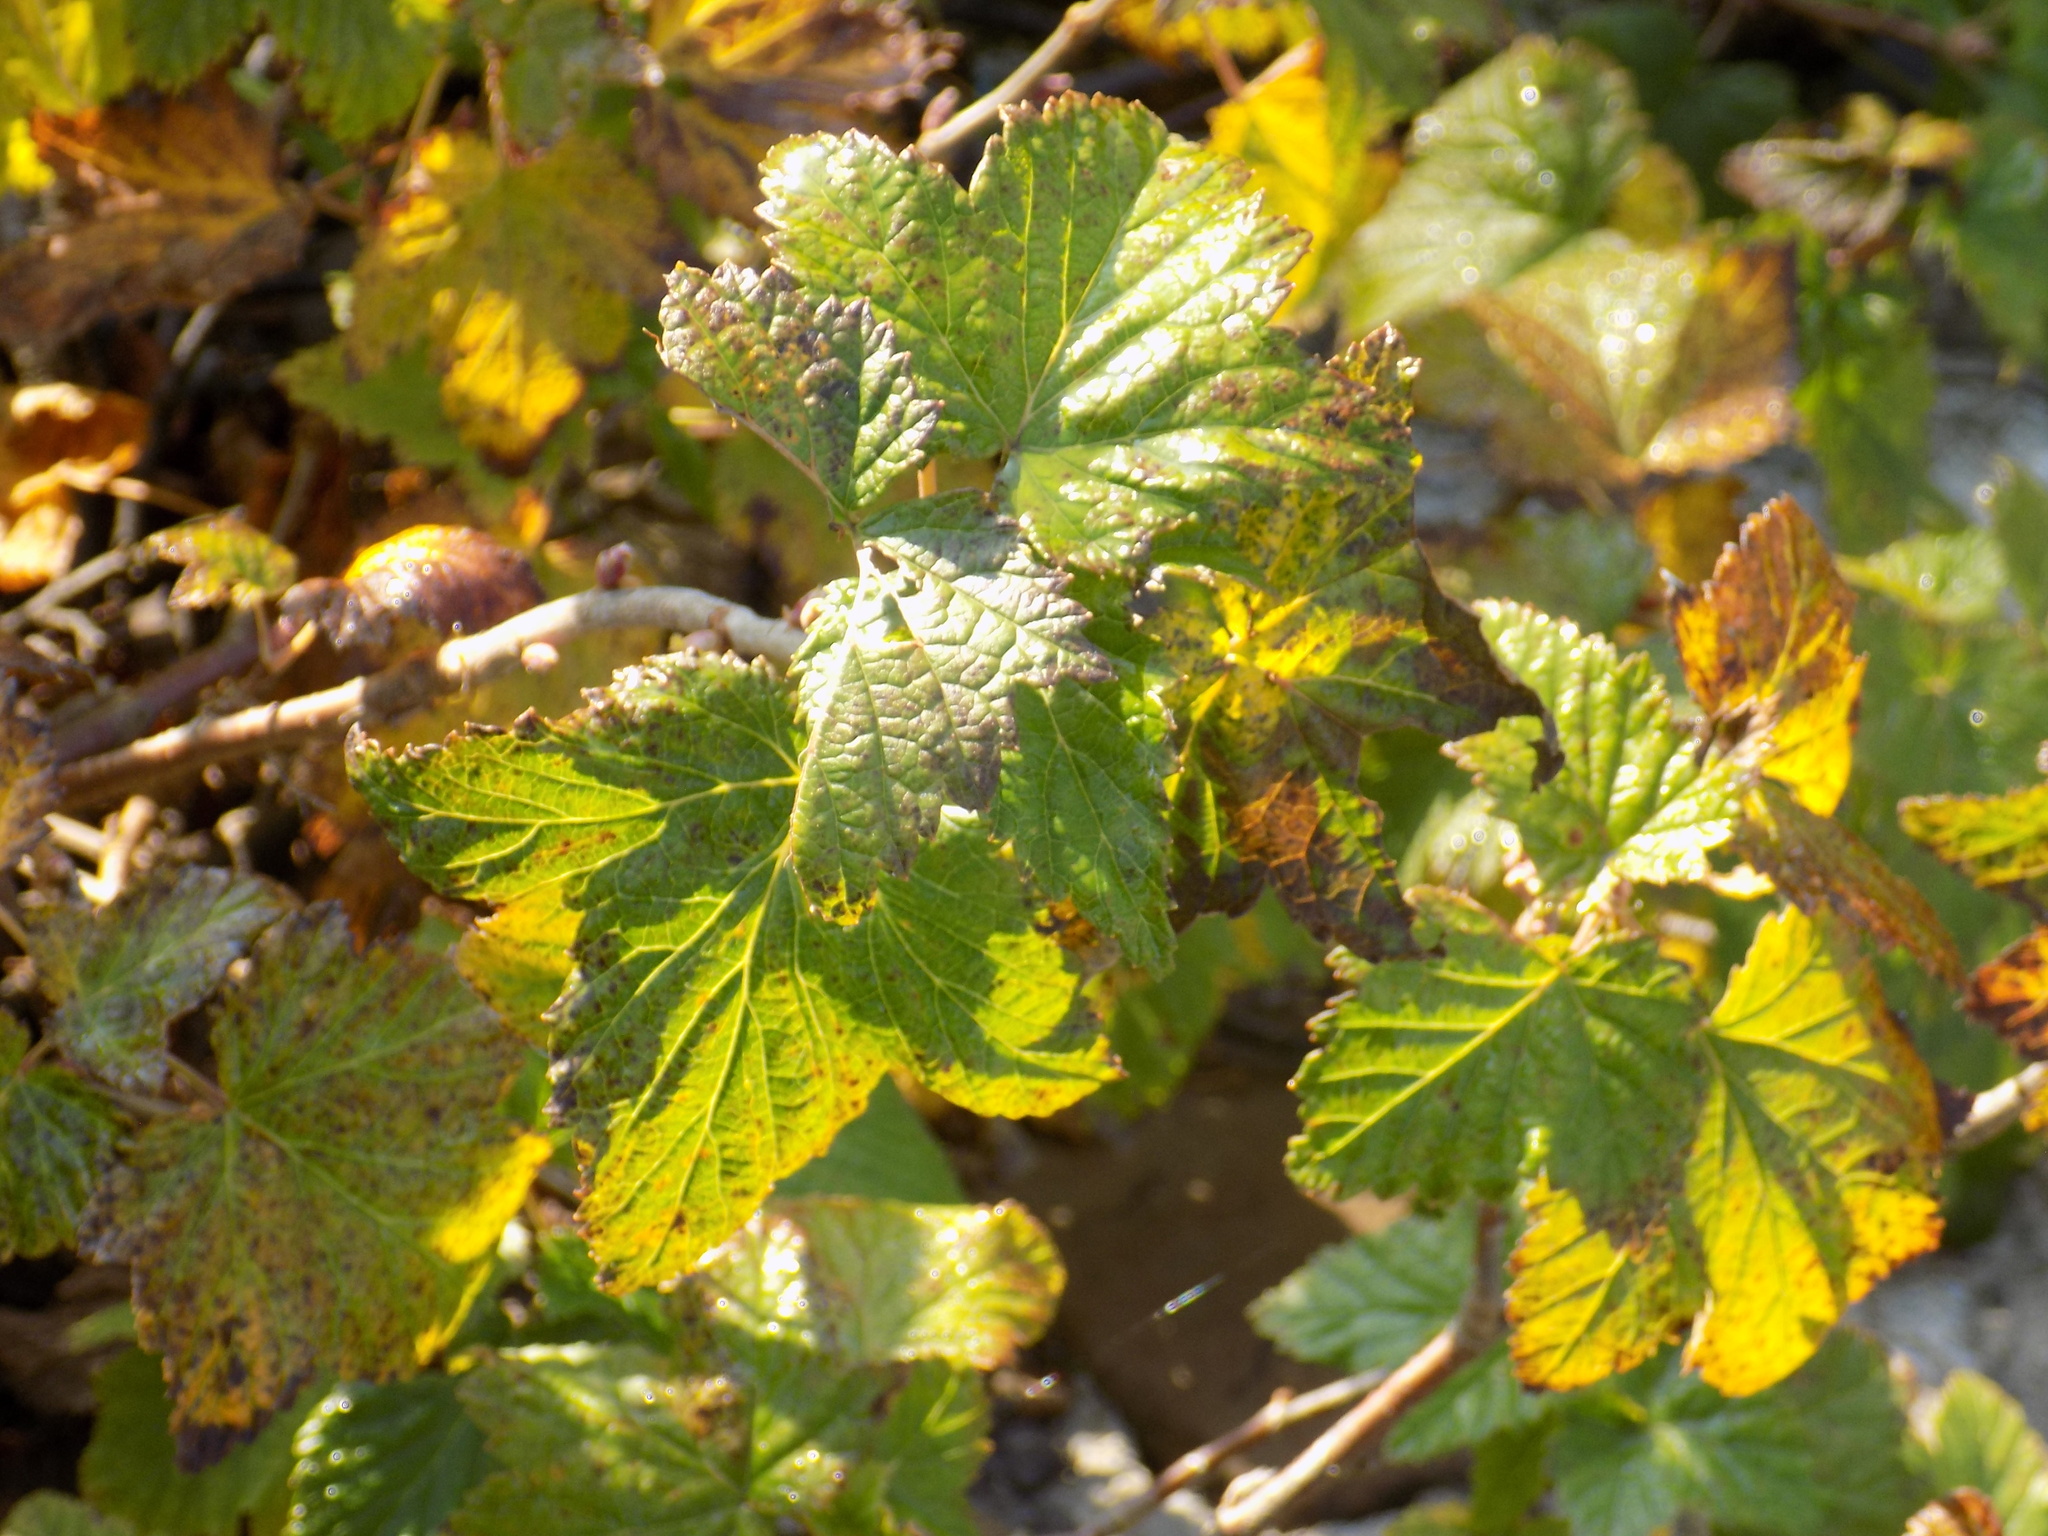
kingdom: Plantae
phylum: Tracheophyta
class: Magnoliopsida
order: Saxifragales
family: Grossulariaceae
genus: Ribes
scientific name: Ribes nigrum
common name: Black currant
